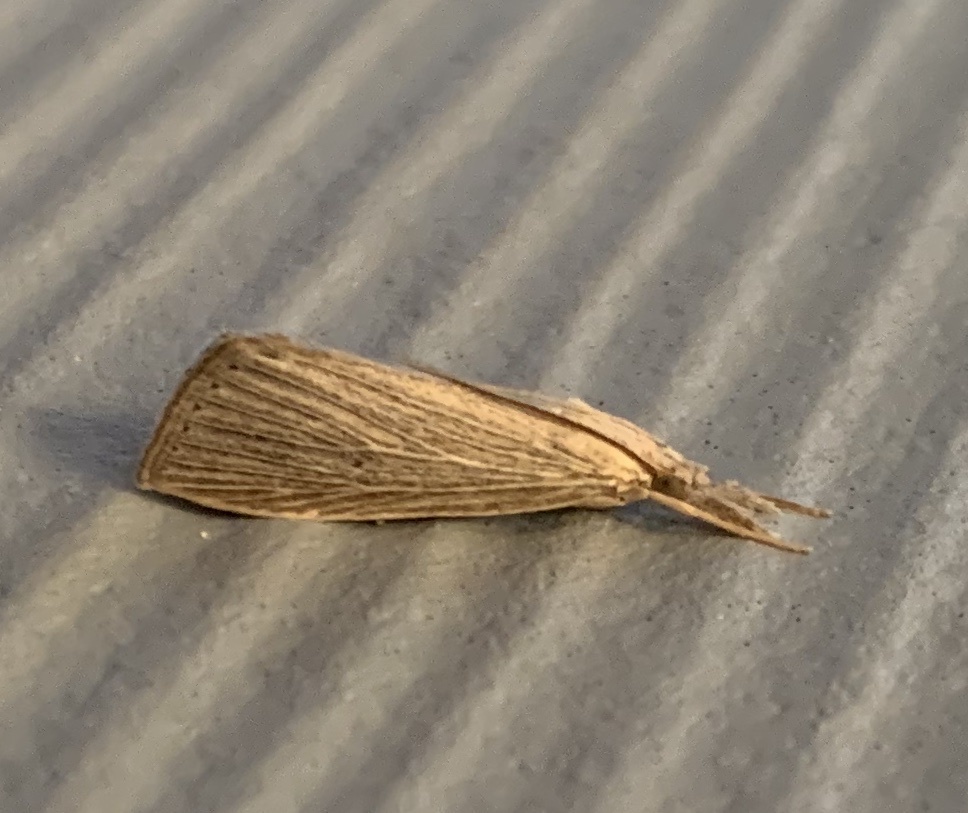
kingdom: Animalia
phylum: Arthropoda
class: Insecta
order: Lepidoptera
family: Crambidae
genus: Eoreuma
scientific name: Eoreuma densellus
